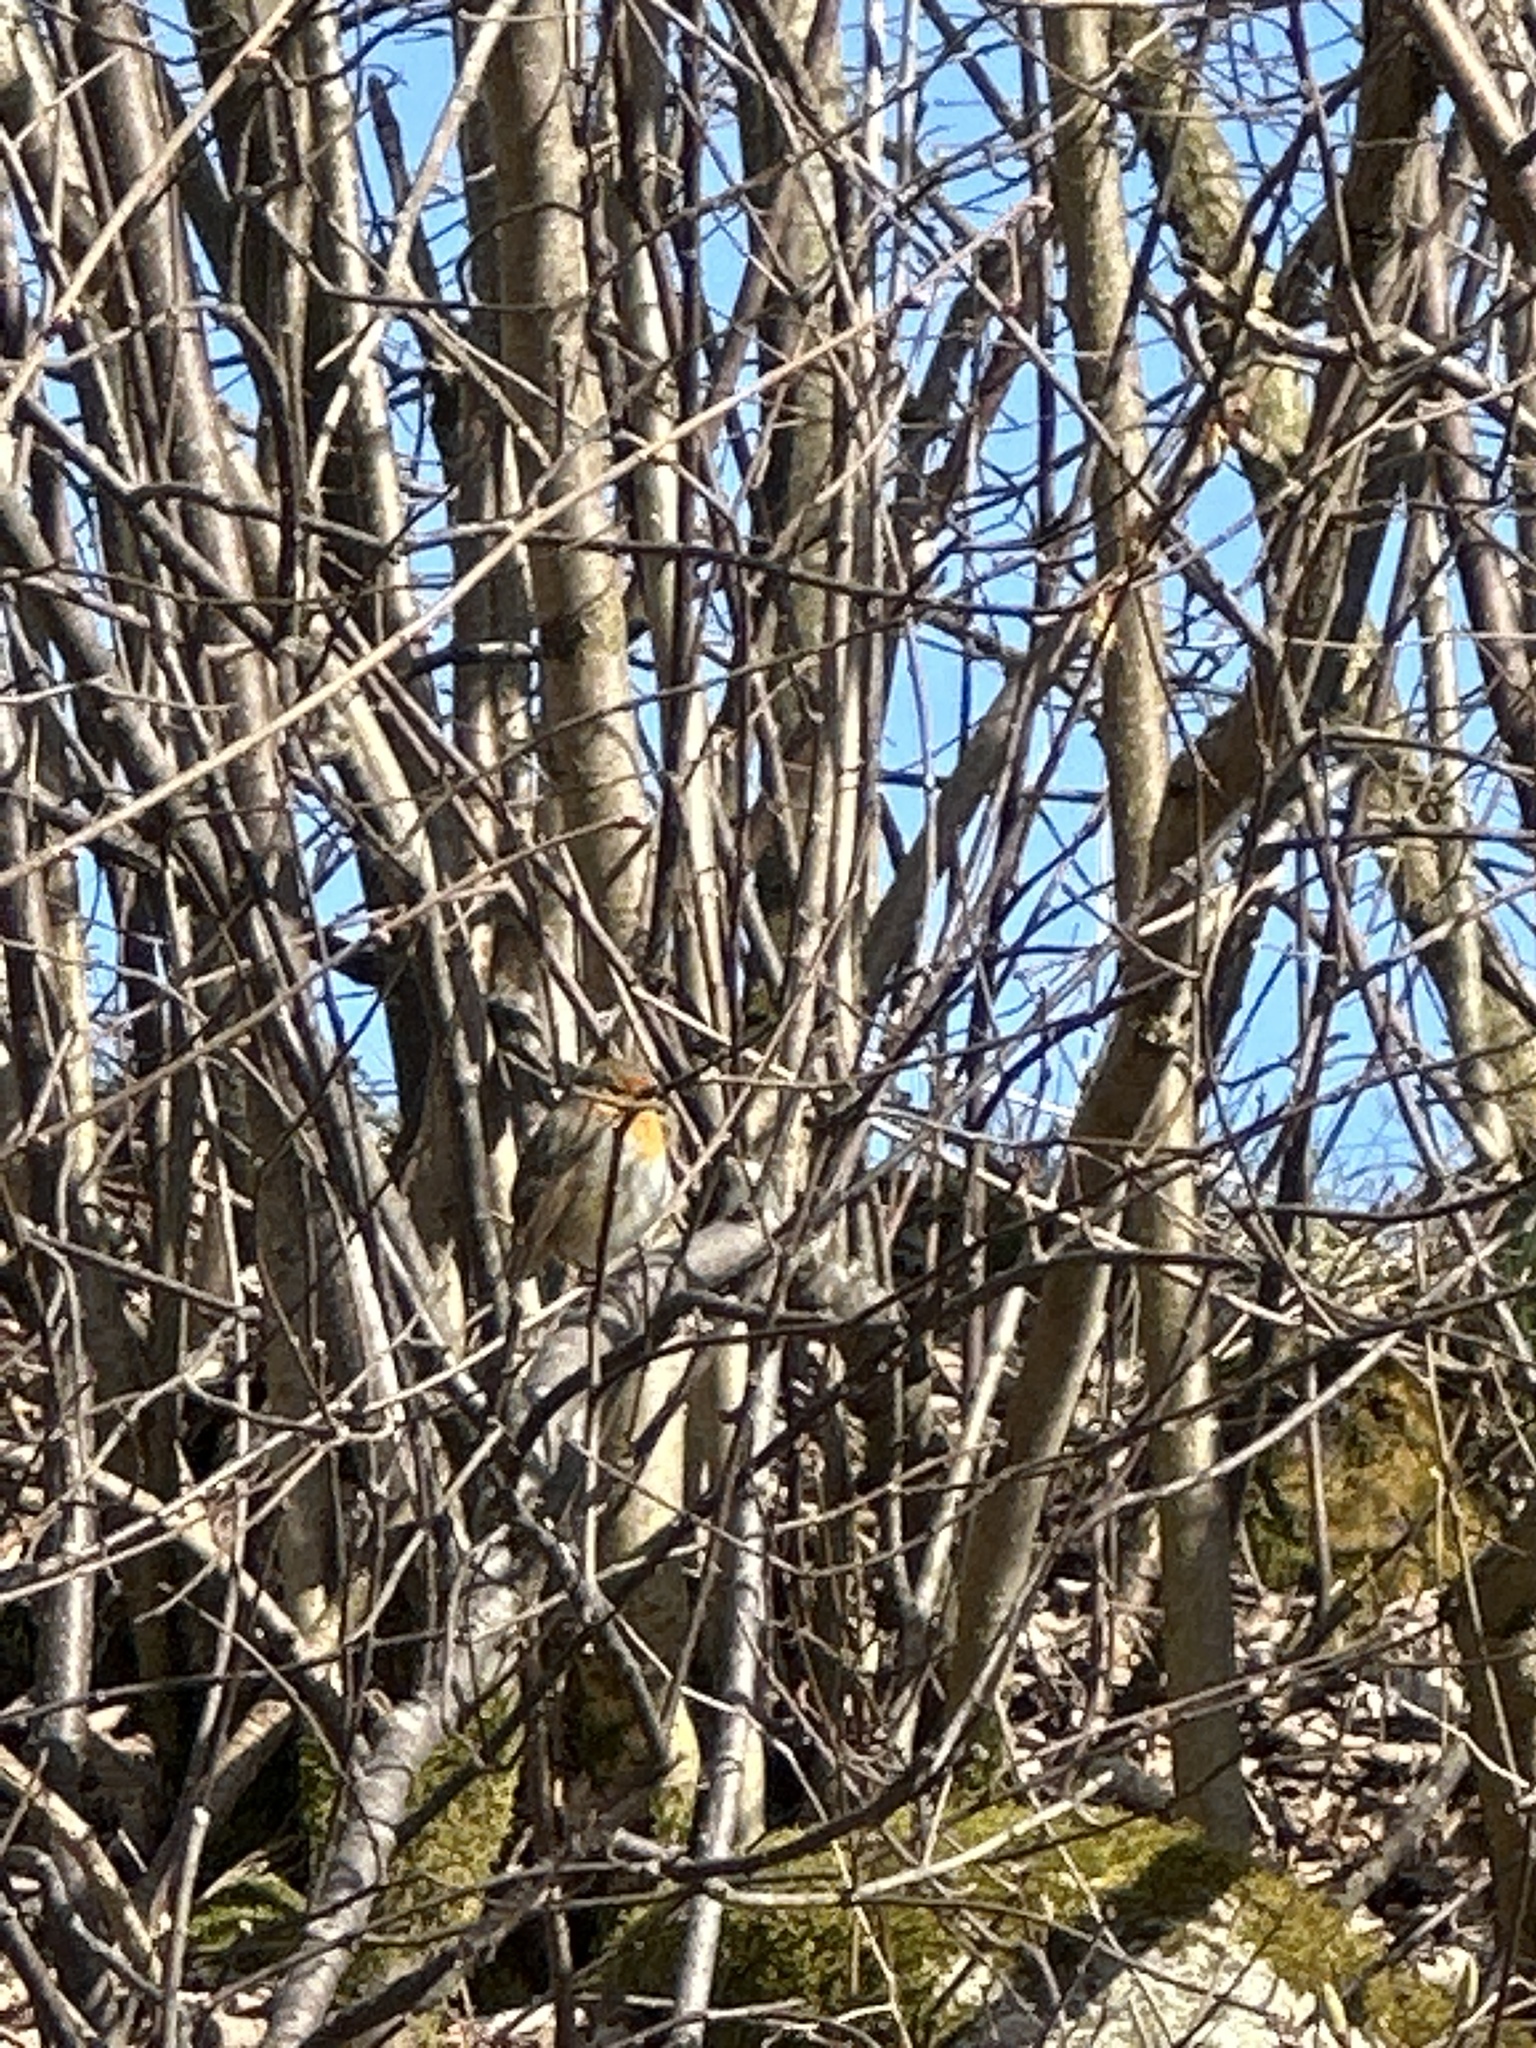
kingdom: Animalia
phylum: Chordata
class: Aves
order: Passeriformes
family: Muscicapidae
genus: Erithacus
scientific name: Erithacus rubecula
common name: European robin
